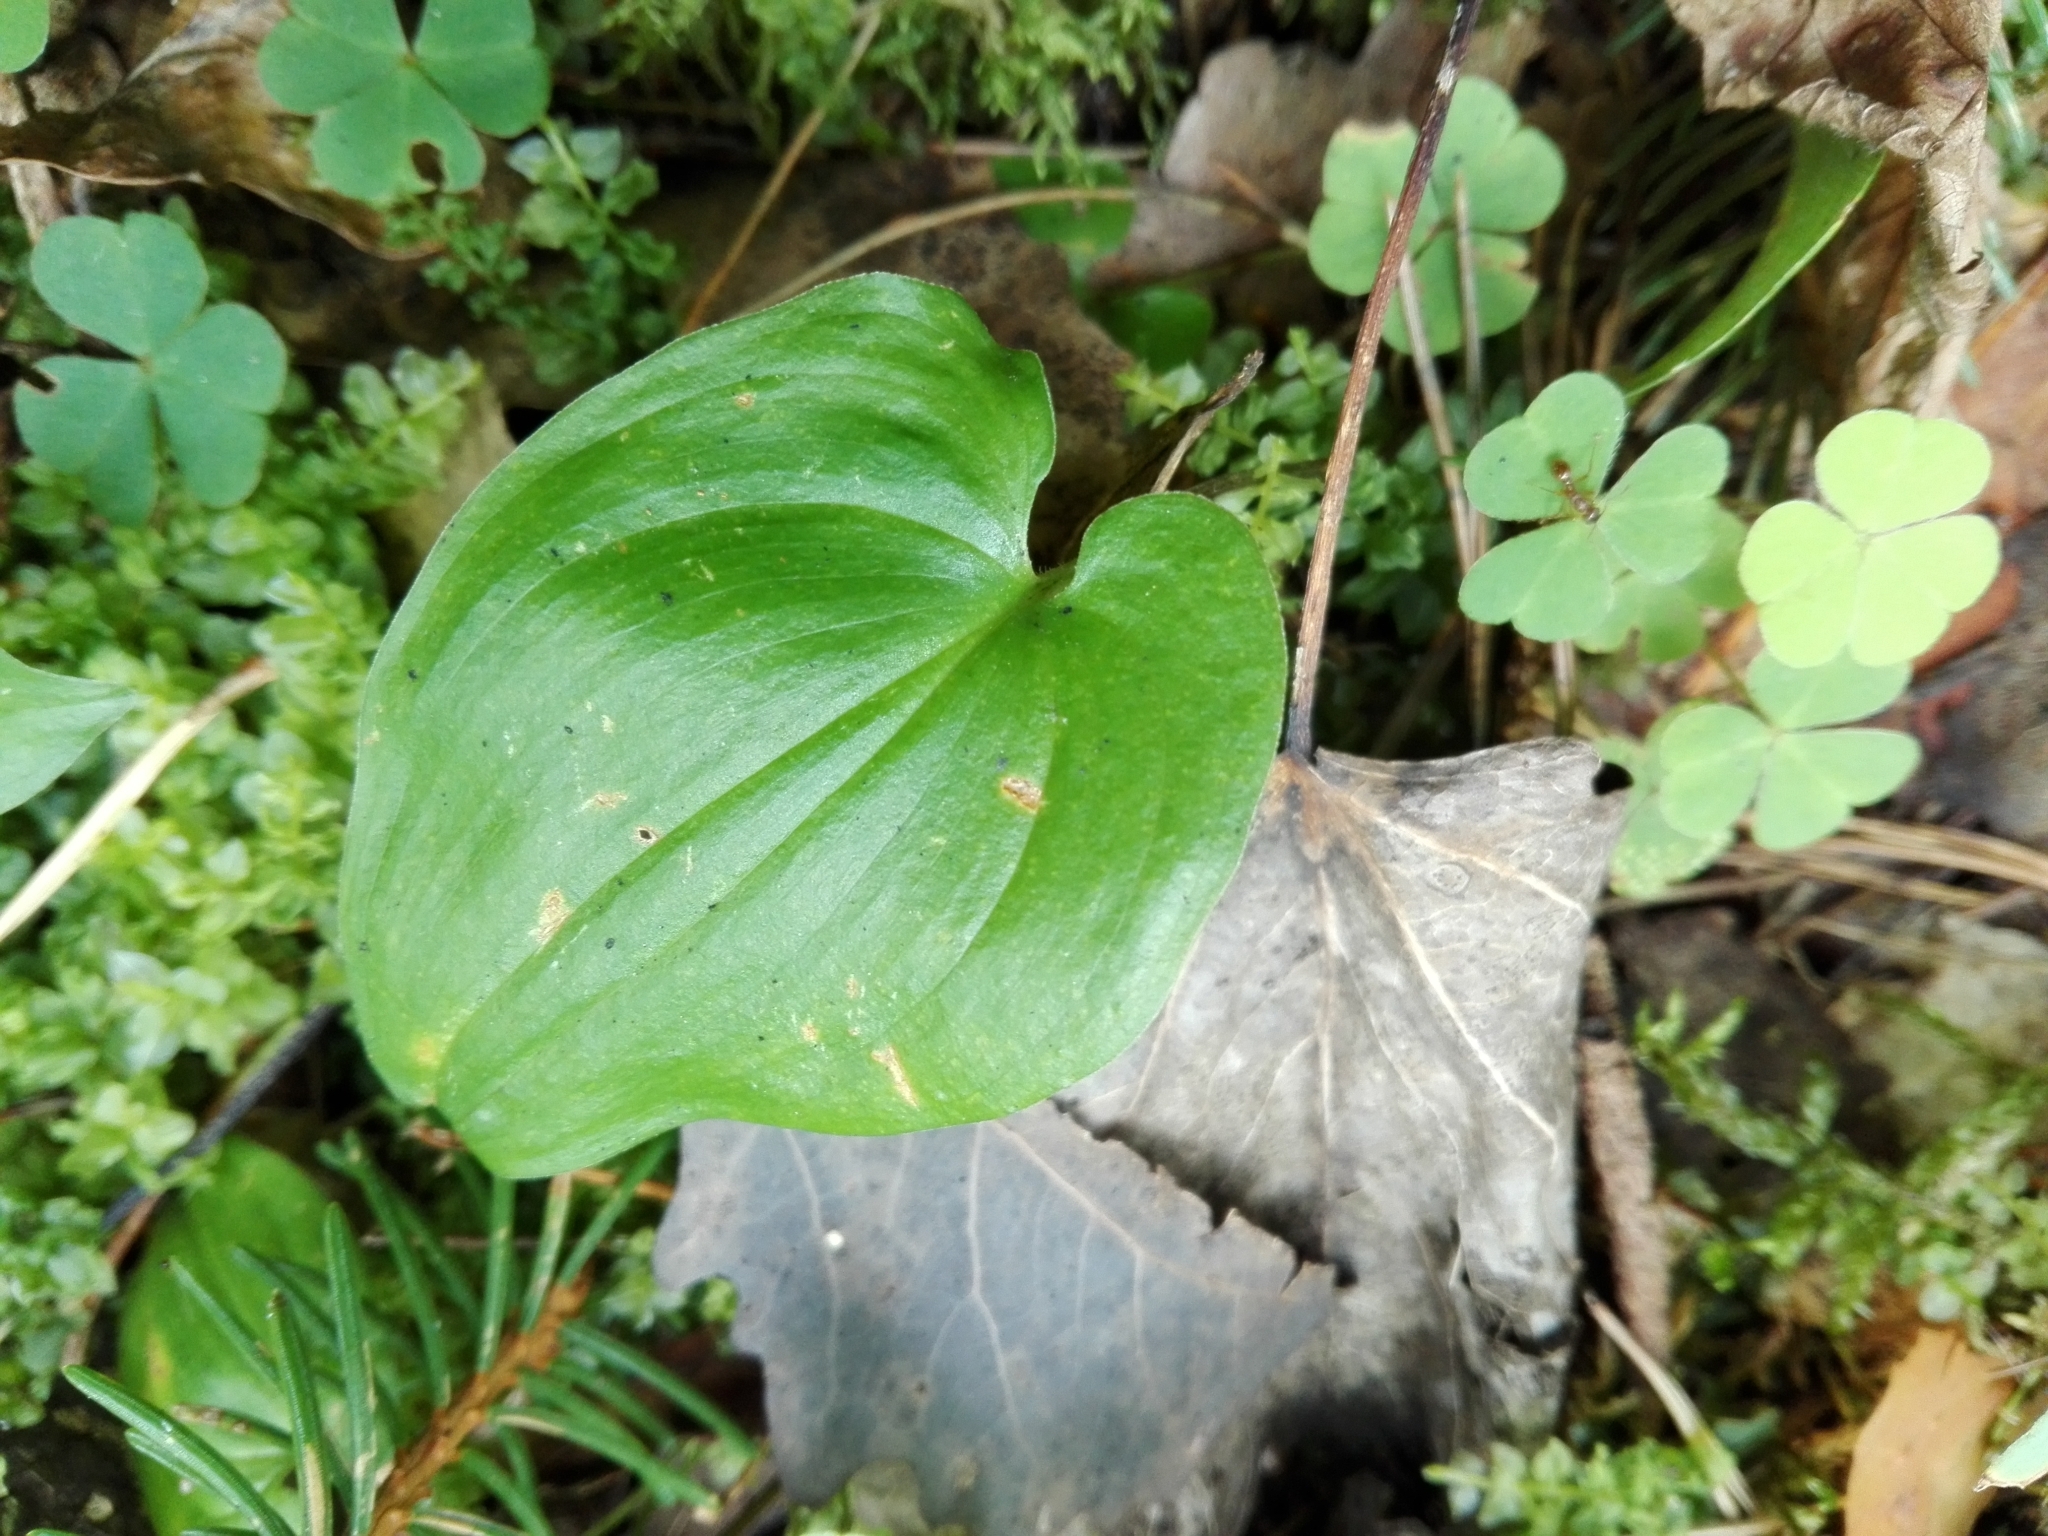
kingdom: Plantae
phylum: Tracheophyta
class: Liliopsida
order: Asparagales
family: Asparagaceae
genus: Maianthemum
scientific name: Maianthemum bifolium
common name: May lily
